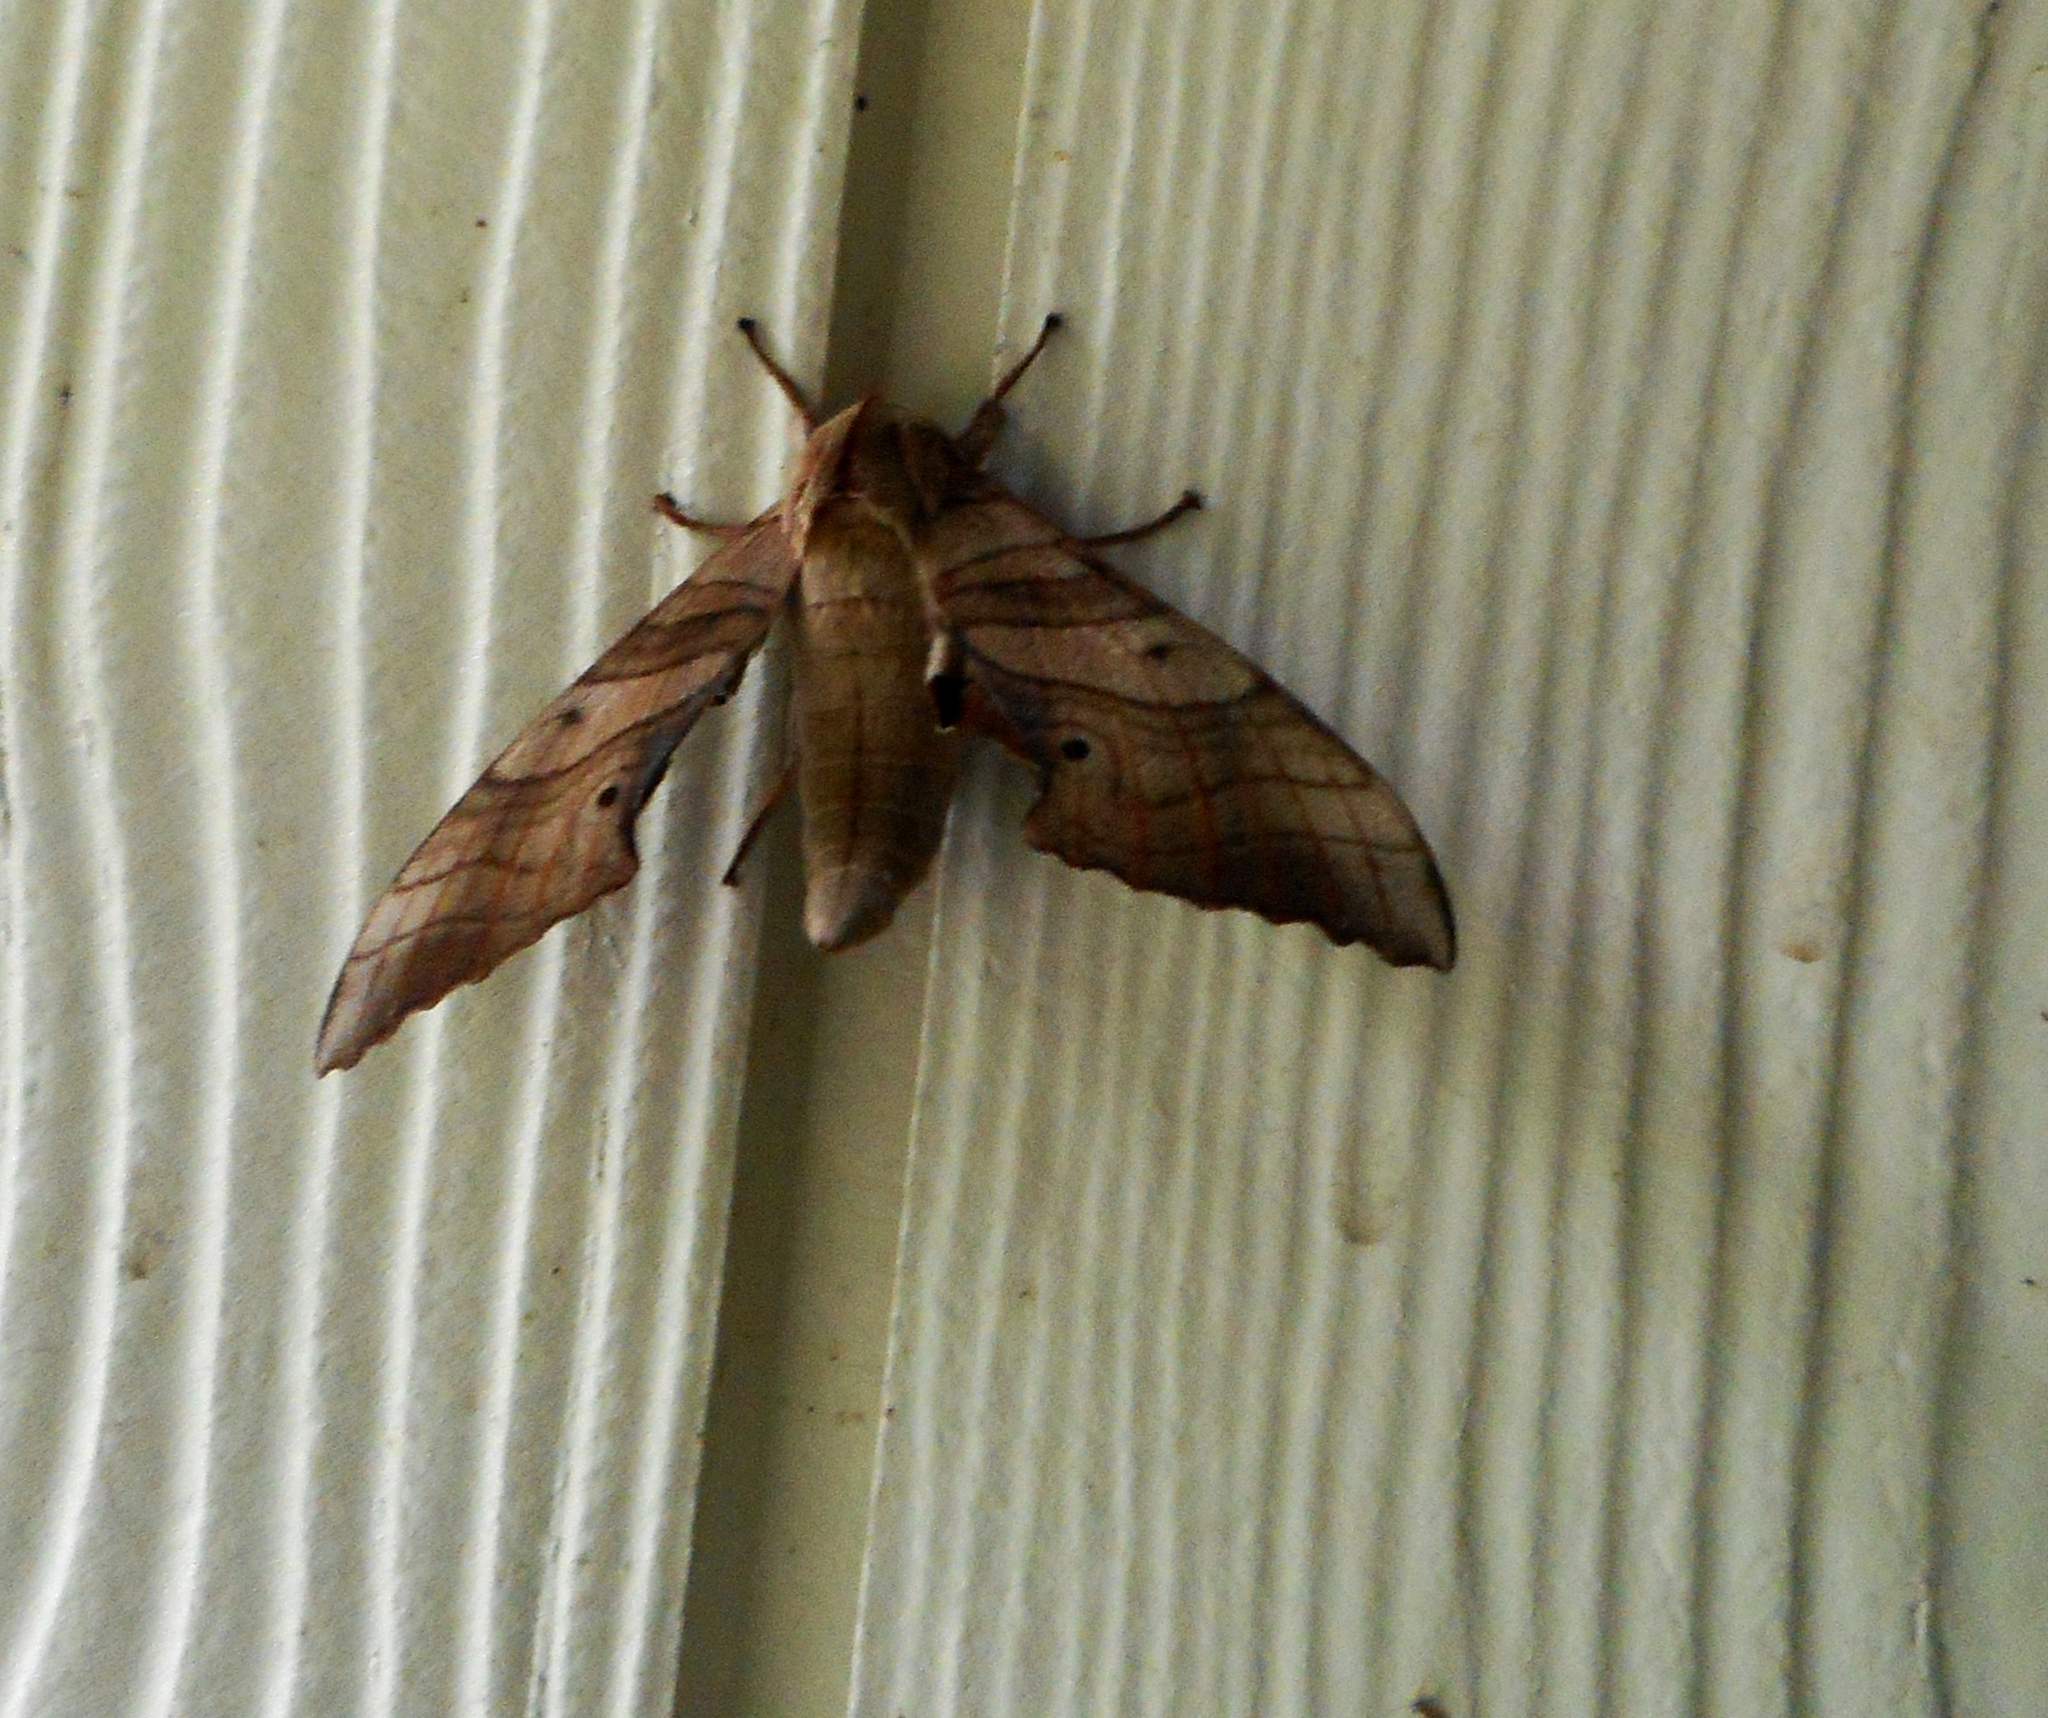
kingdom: Animalia
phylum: Arthropoda
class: Insecta
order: Lepidoptera
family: Sphingidae
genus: Marumba
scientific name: Marumba sperchius
